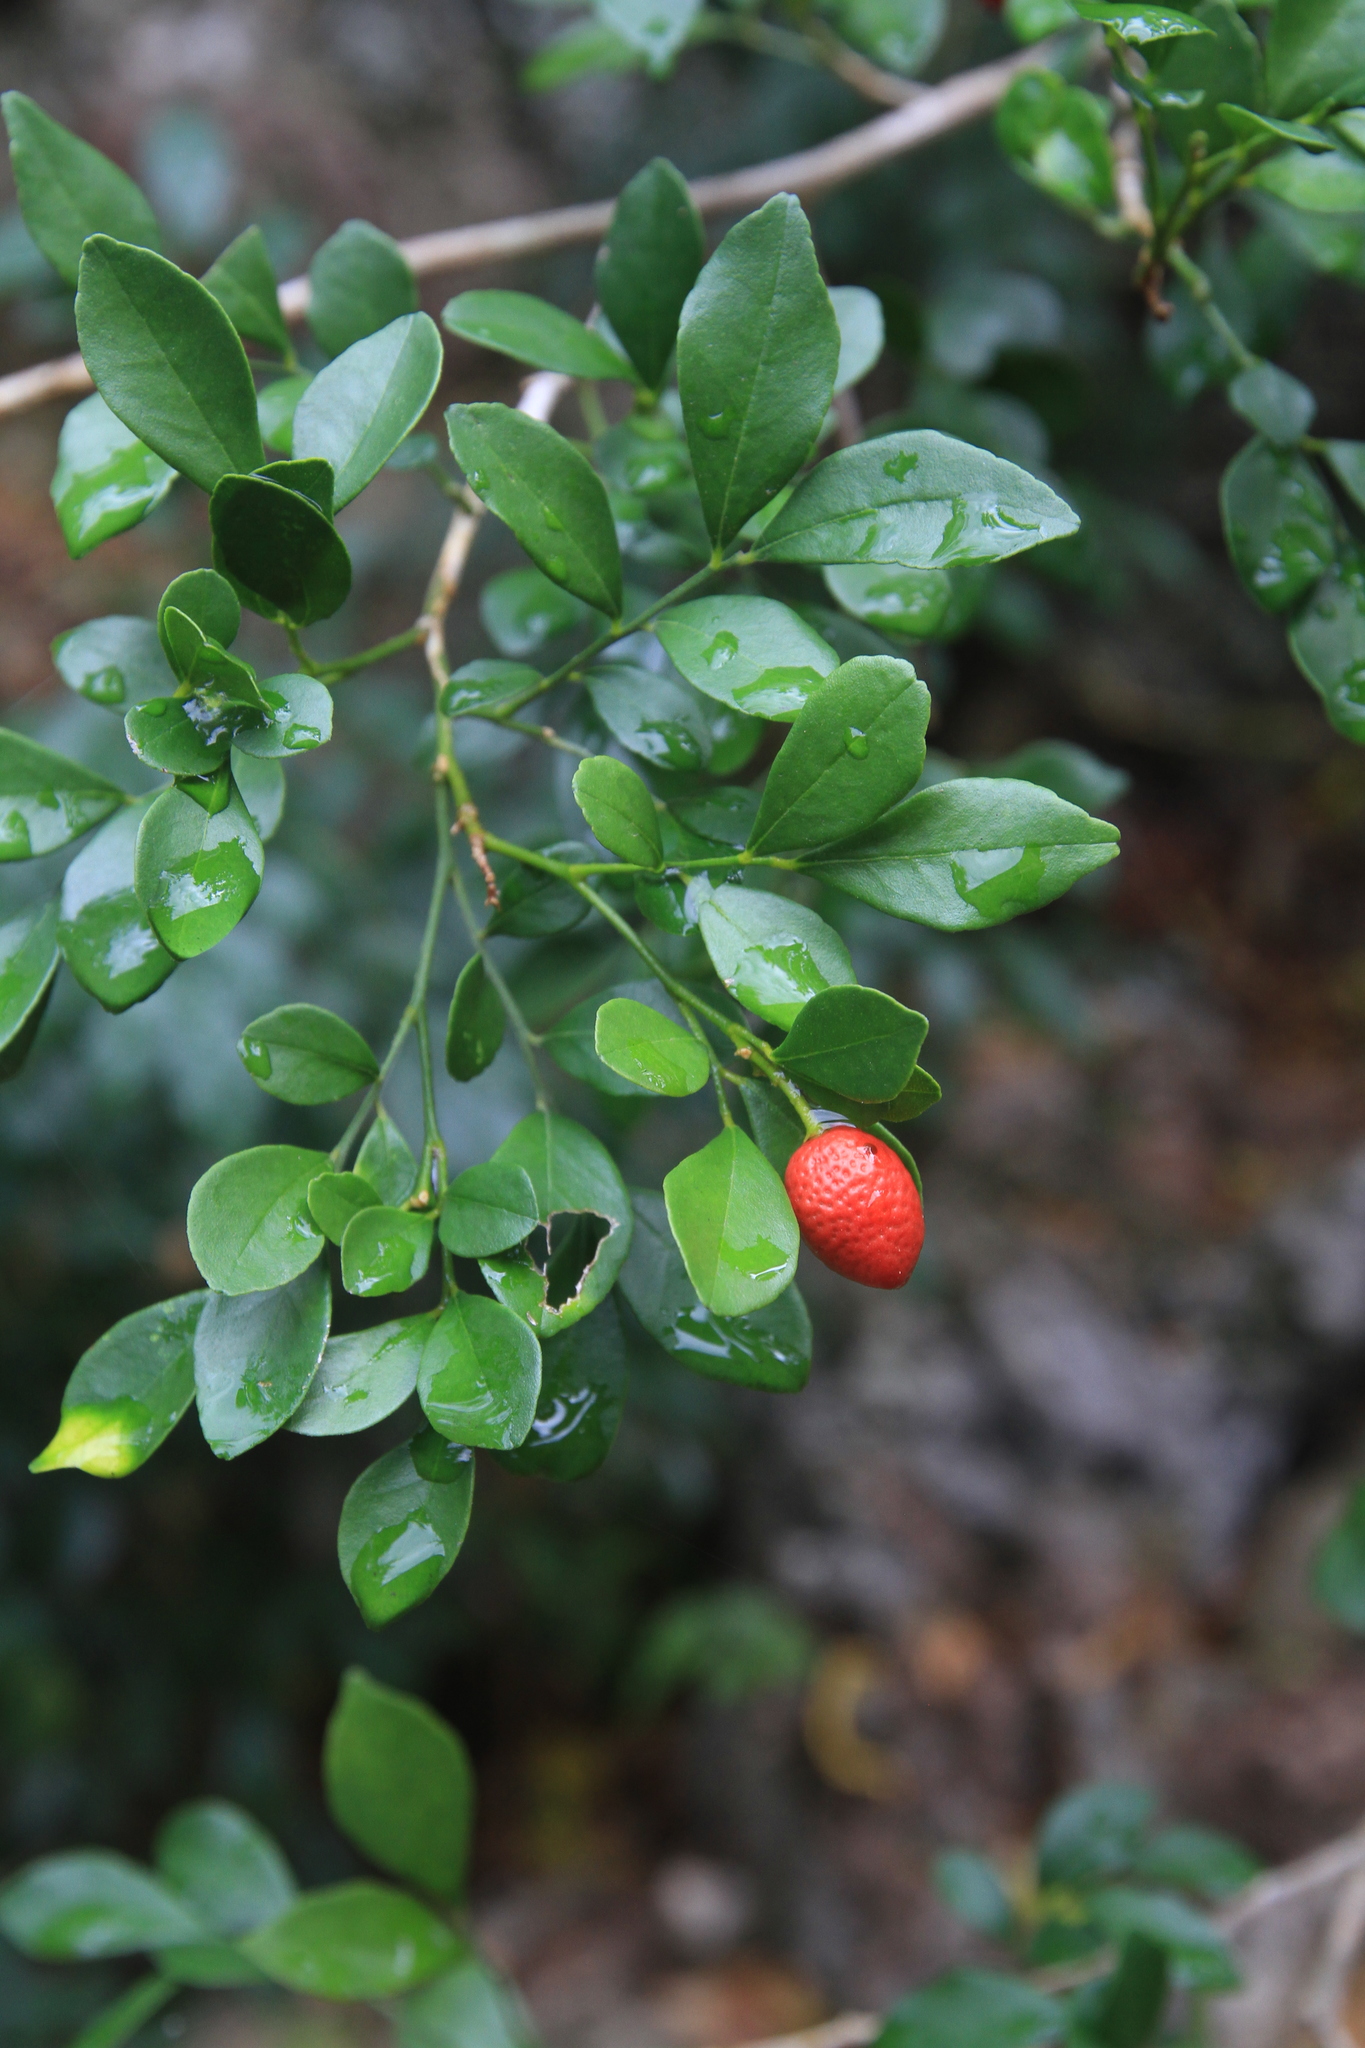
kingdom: Plantae
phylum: Tracheophyta
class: Magnoliopsida
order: Sapindales
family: Rutaceae
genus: Murraya
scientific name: Murraya paniculata
